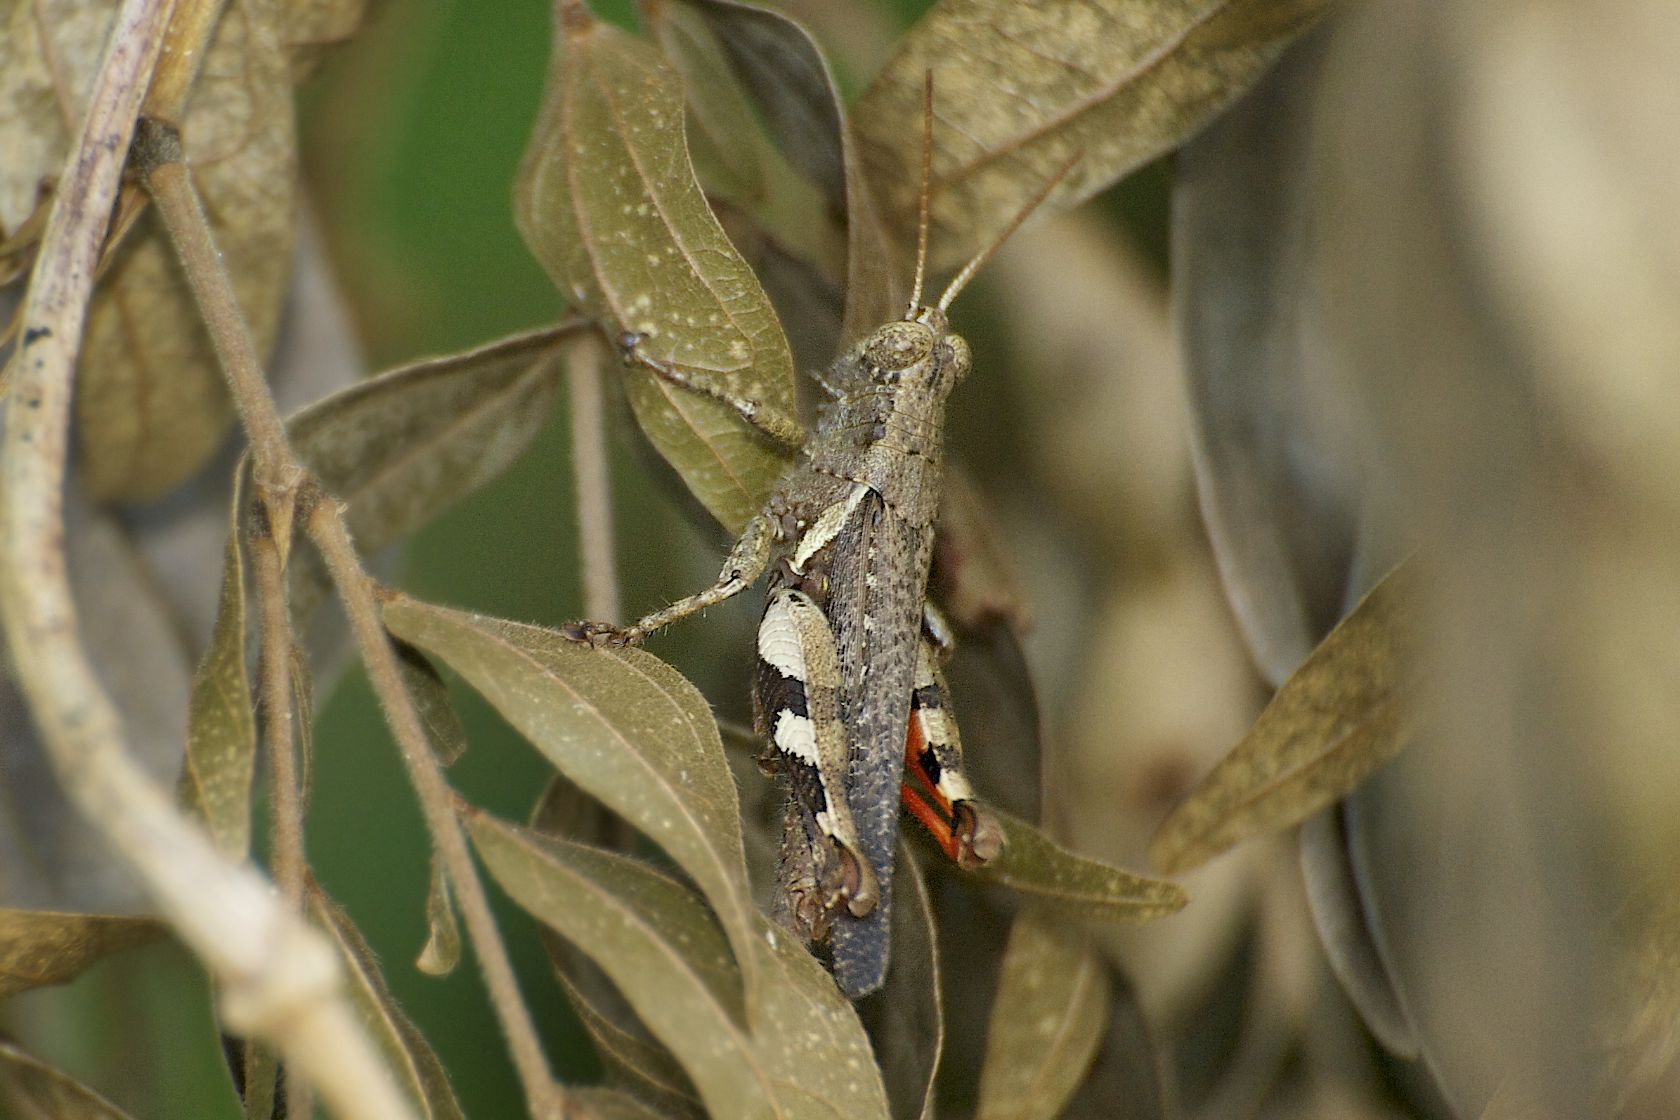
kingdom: Animalia
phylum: Arthropoda
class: Insecta
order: Orthoptera
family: Acrididae
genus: Xenocatantops
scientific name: Xenocatantops humile
